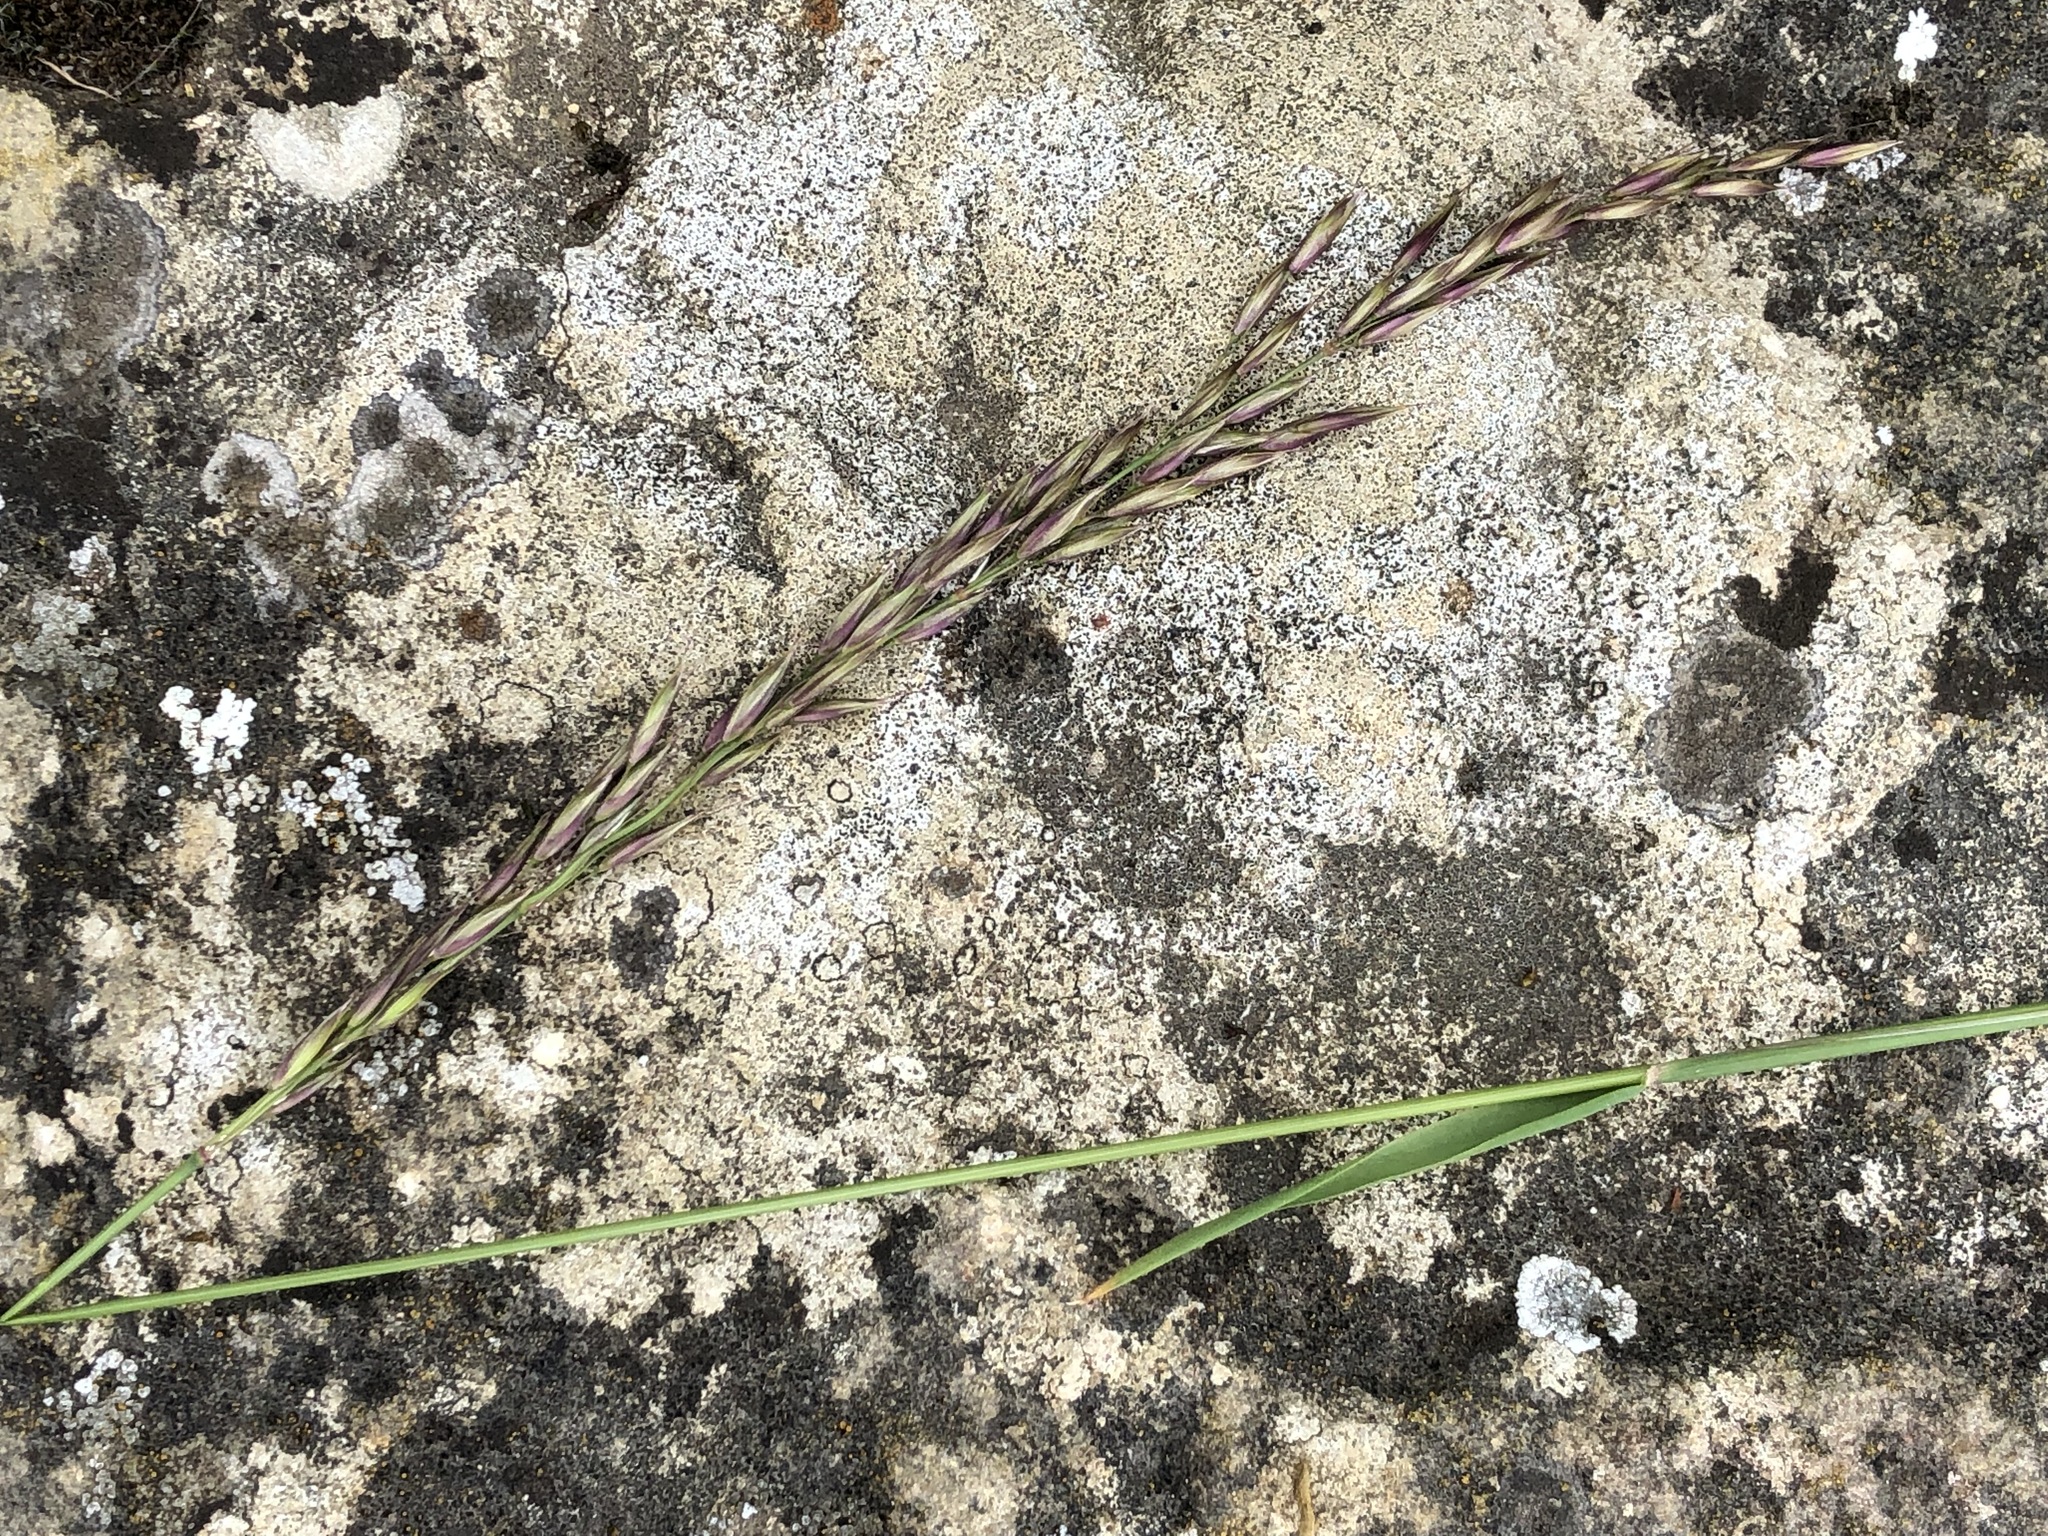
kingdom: Plantae
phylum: Tracheophyta
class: Liliopsida
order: Poales
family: Poaceae
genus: Arrhenatherum
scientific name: Arrhenatherum elatius
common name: Tall oatgrass
